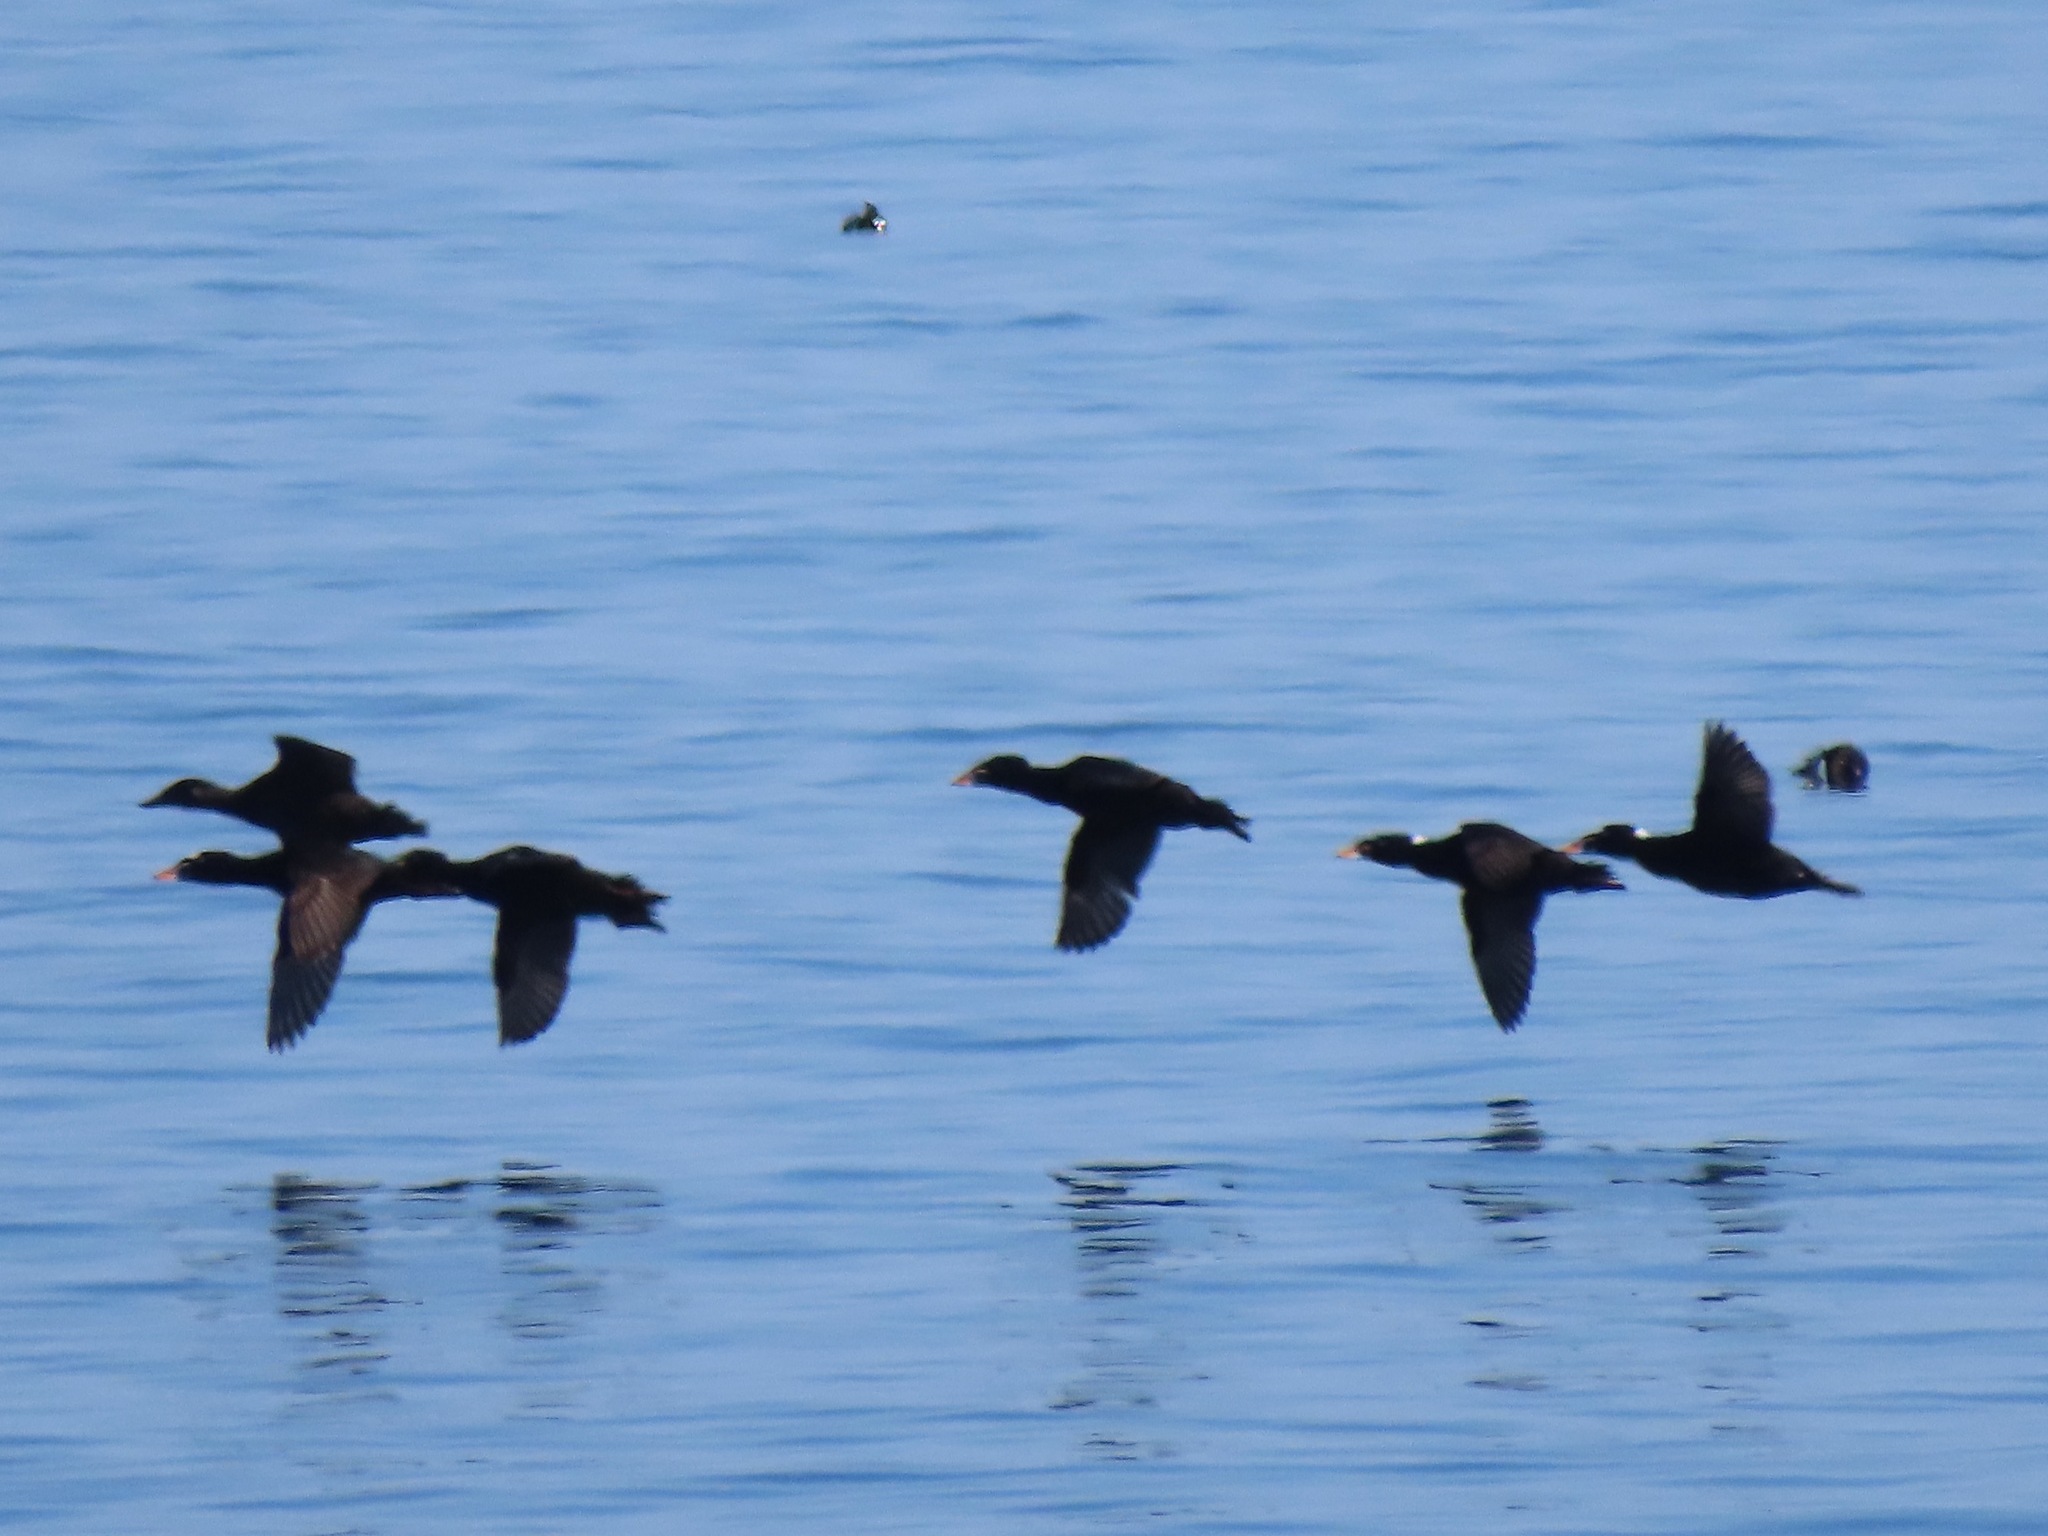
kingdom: Animalia
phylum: Chordata
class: Aves
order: Anseriformes
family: Anatidae
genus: Melanitta
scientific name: Melanitta perspicillata
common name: Surf scoter
